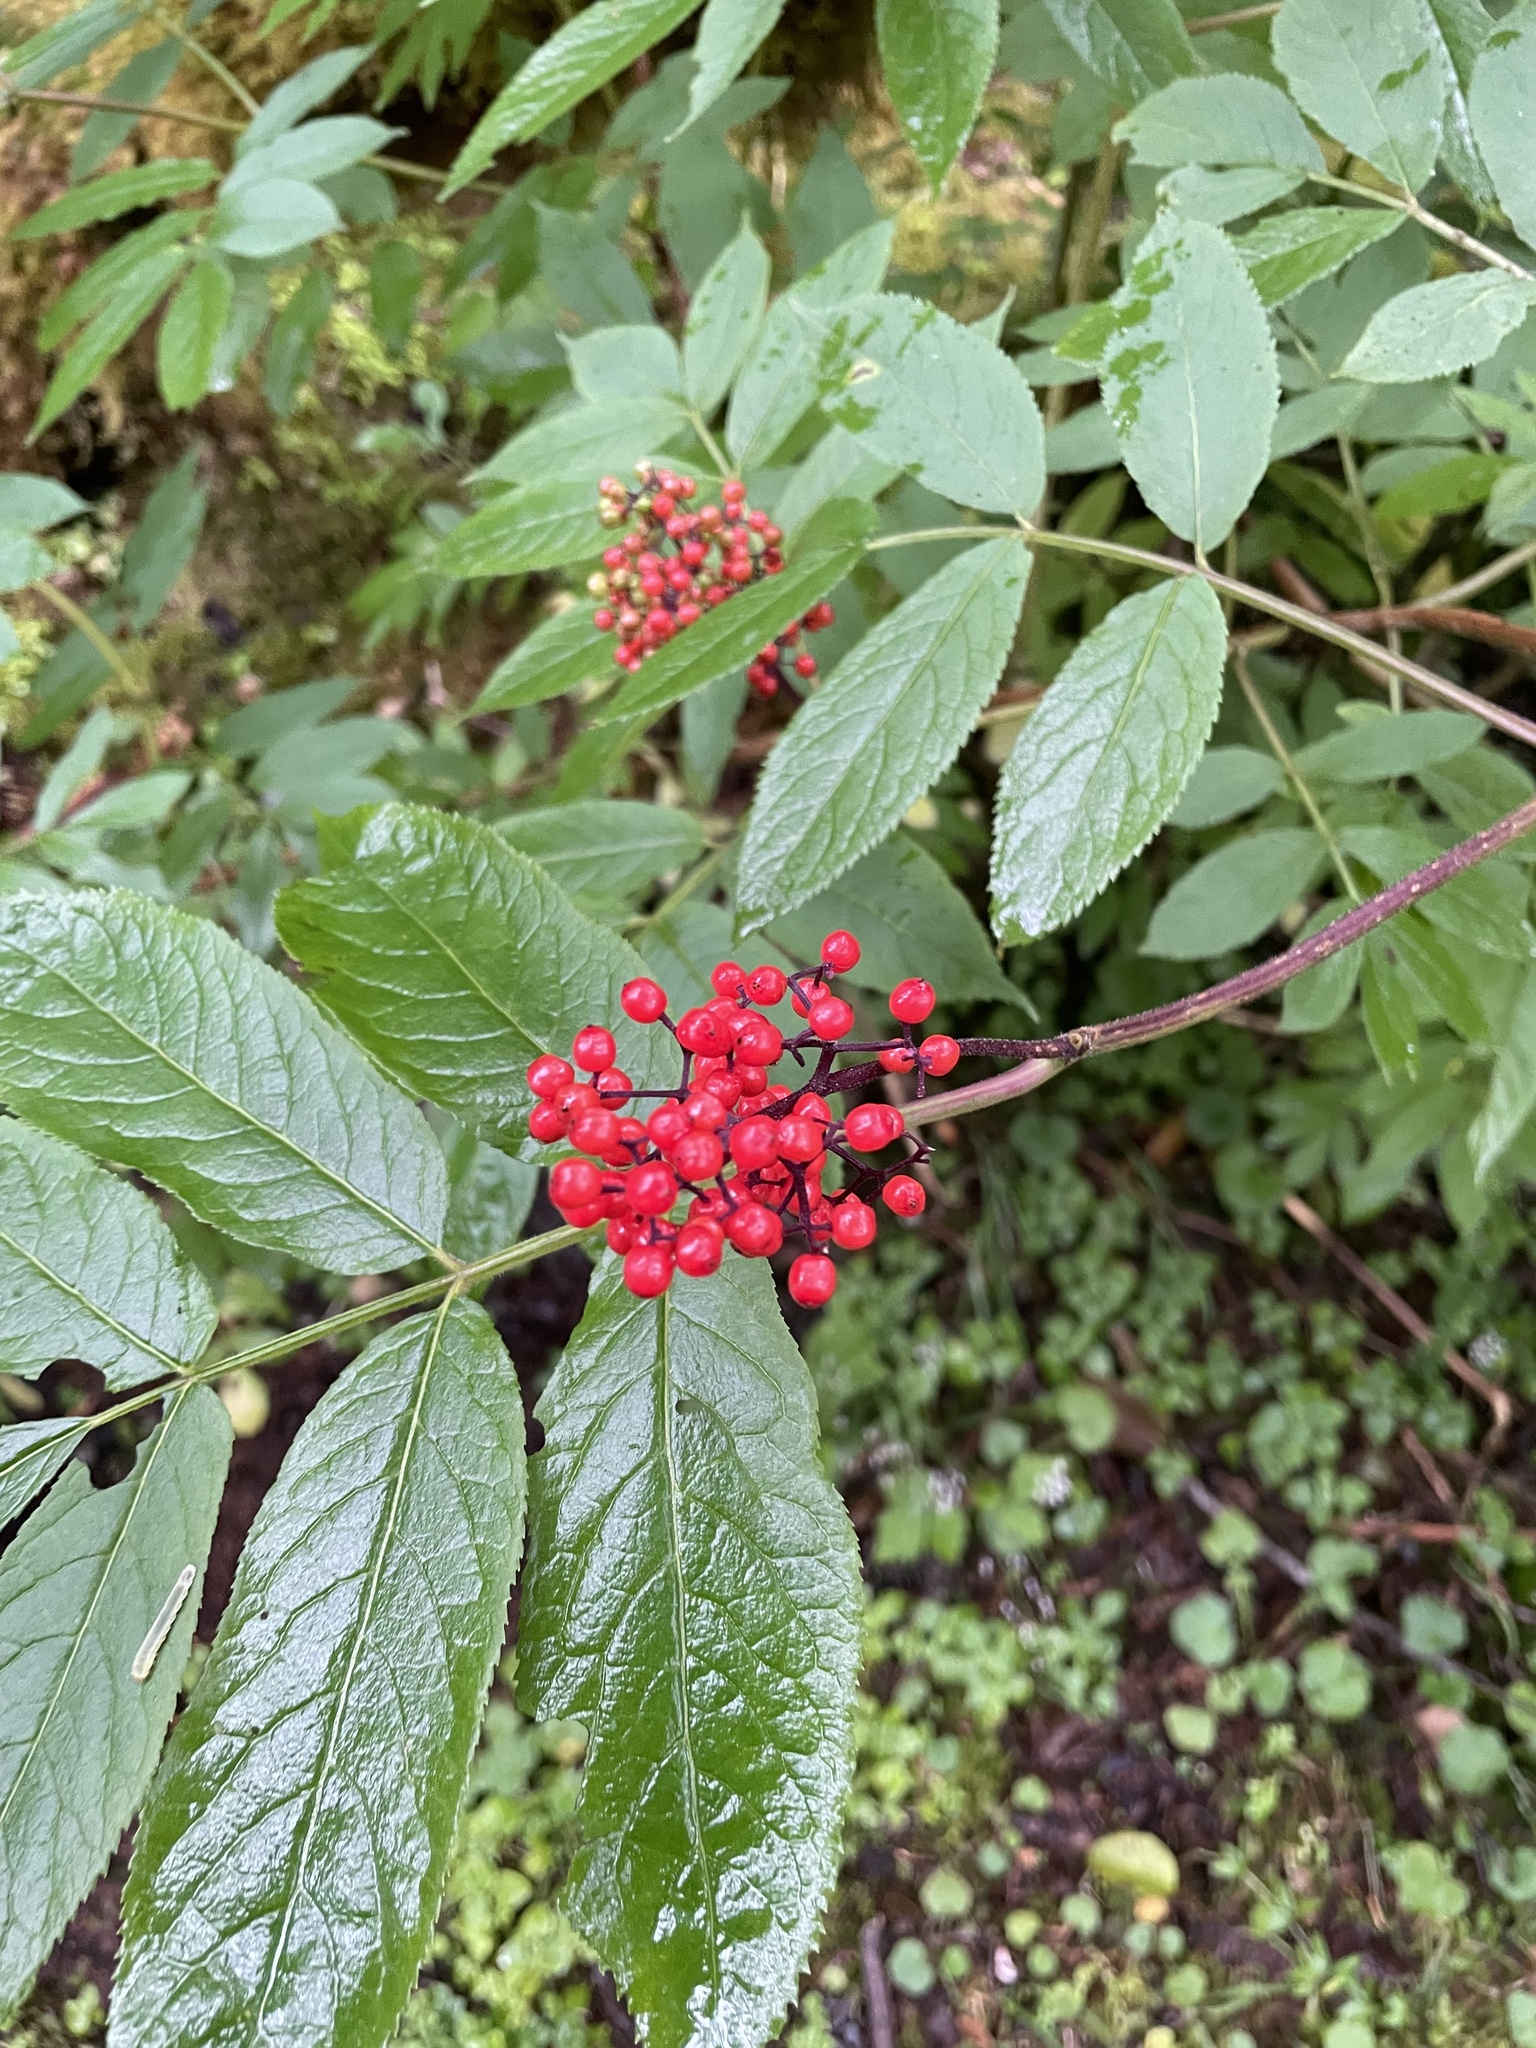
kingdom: Plantae
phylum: Tracheophyta
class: Magnoliopsida
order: Dipsacales
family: Viburnaceae
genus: Sambucus
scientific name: Sambucus racemosa
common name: Red-berried elder
